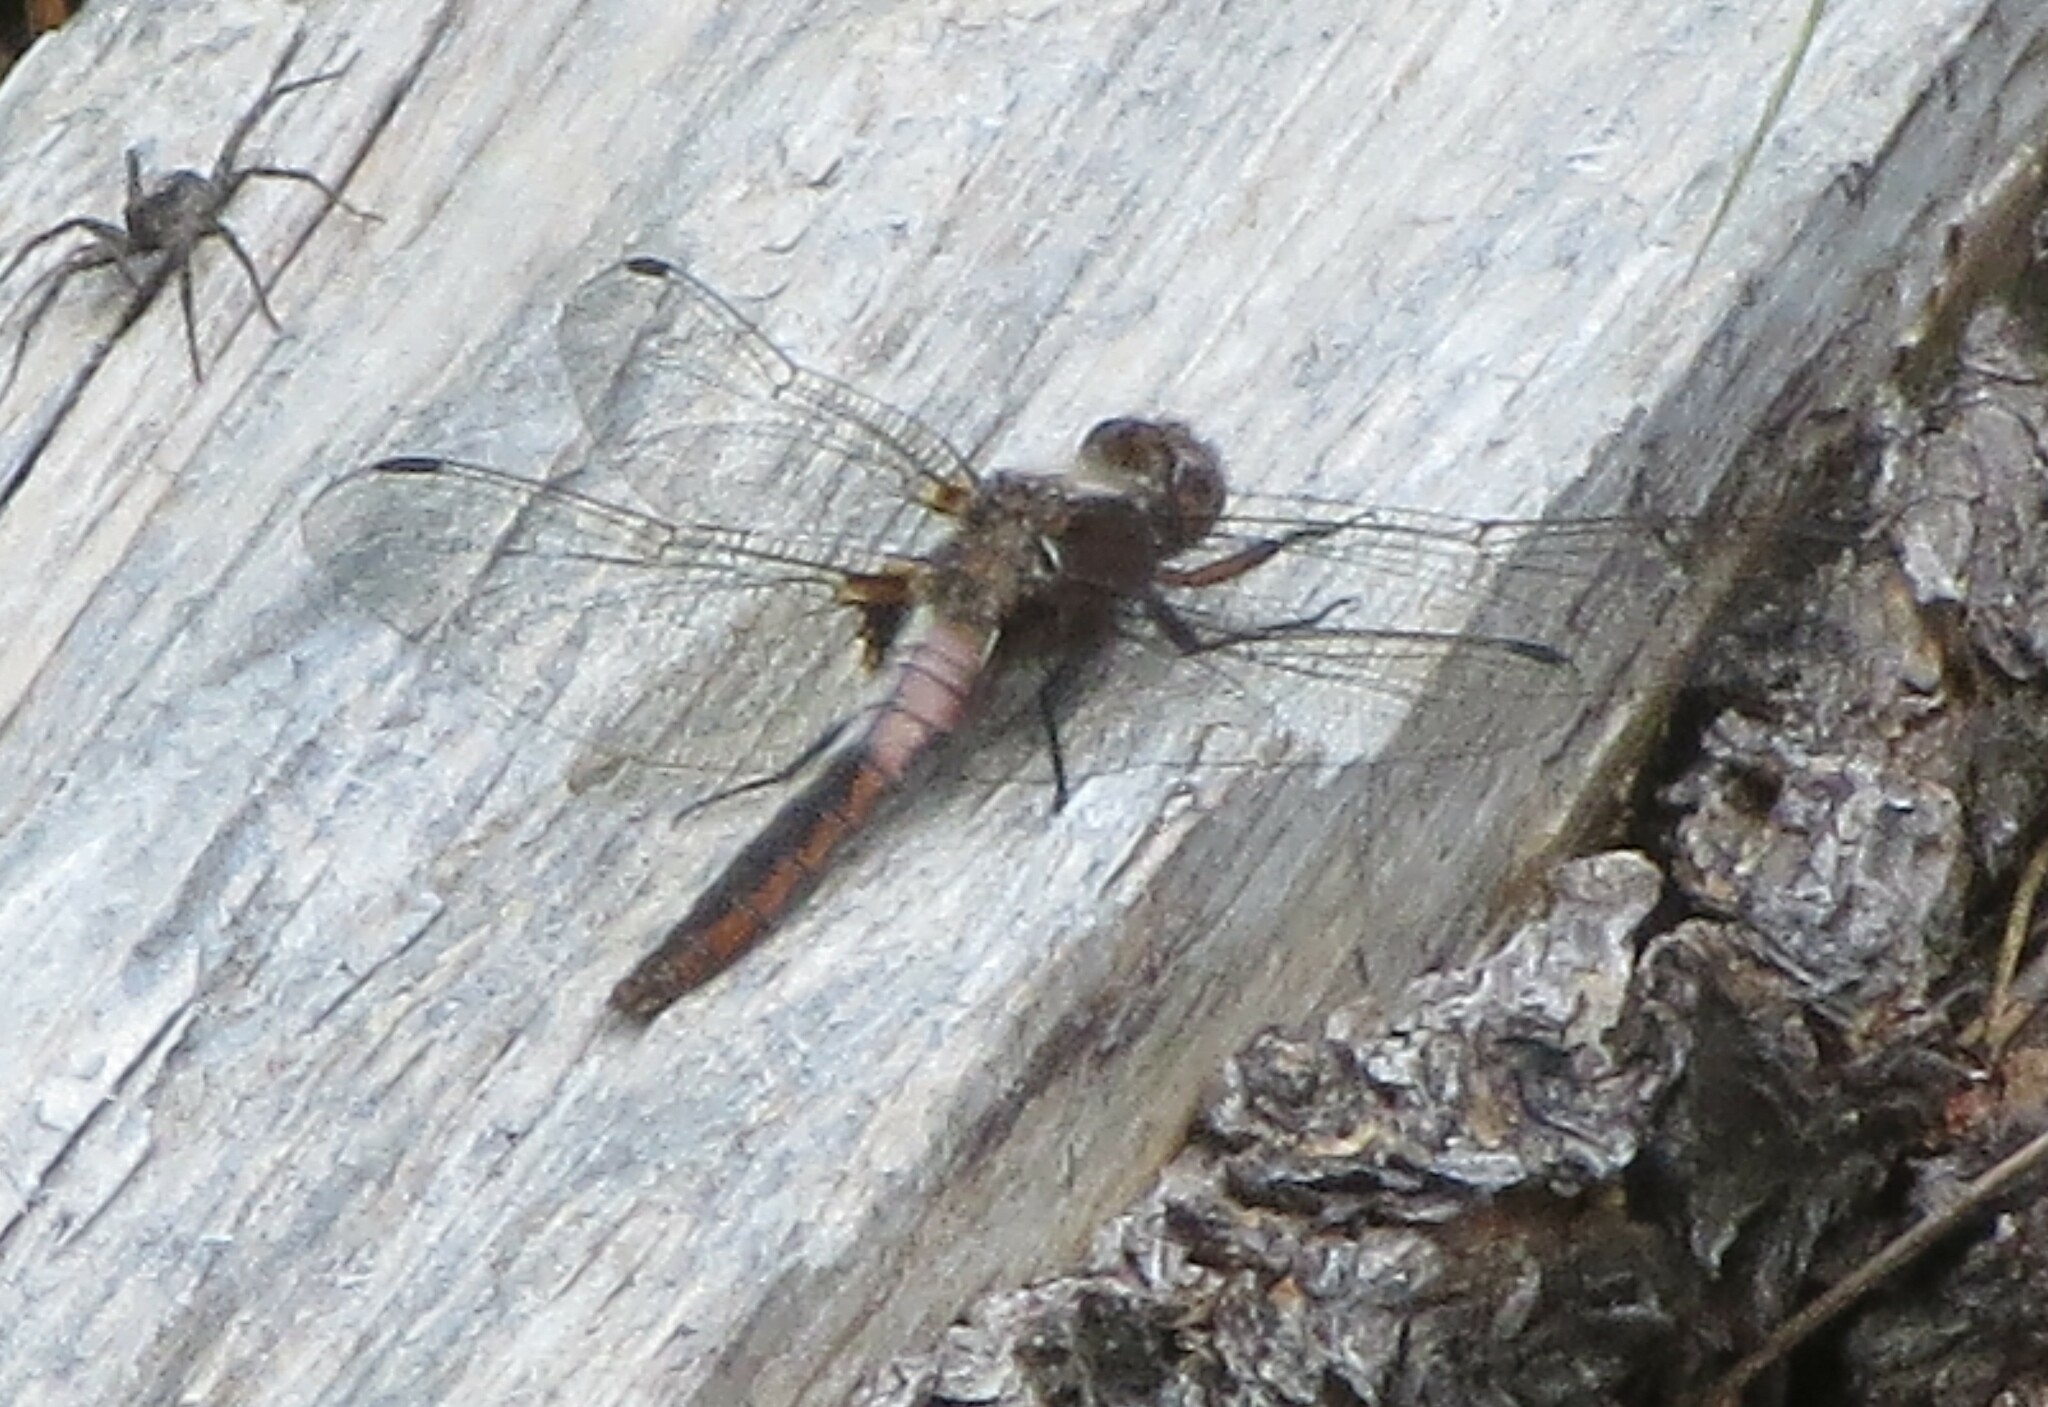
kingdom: Animalia
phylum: Arthropoda
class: Insecta
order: Odonata
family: Libellulidae
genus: Ladona
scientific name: Ladona julia
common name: Chalk-fronted corporal
